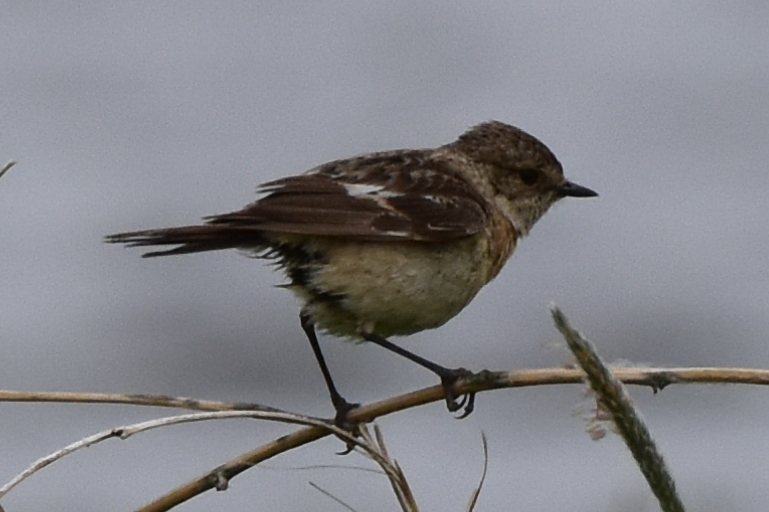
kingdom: Animalia
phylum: Chordata
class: Aves
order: Passeriformes
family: Muscicapidae
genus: Saxicola
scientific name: Saxicola maurus
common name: Siberian stonechat
